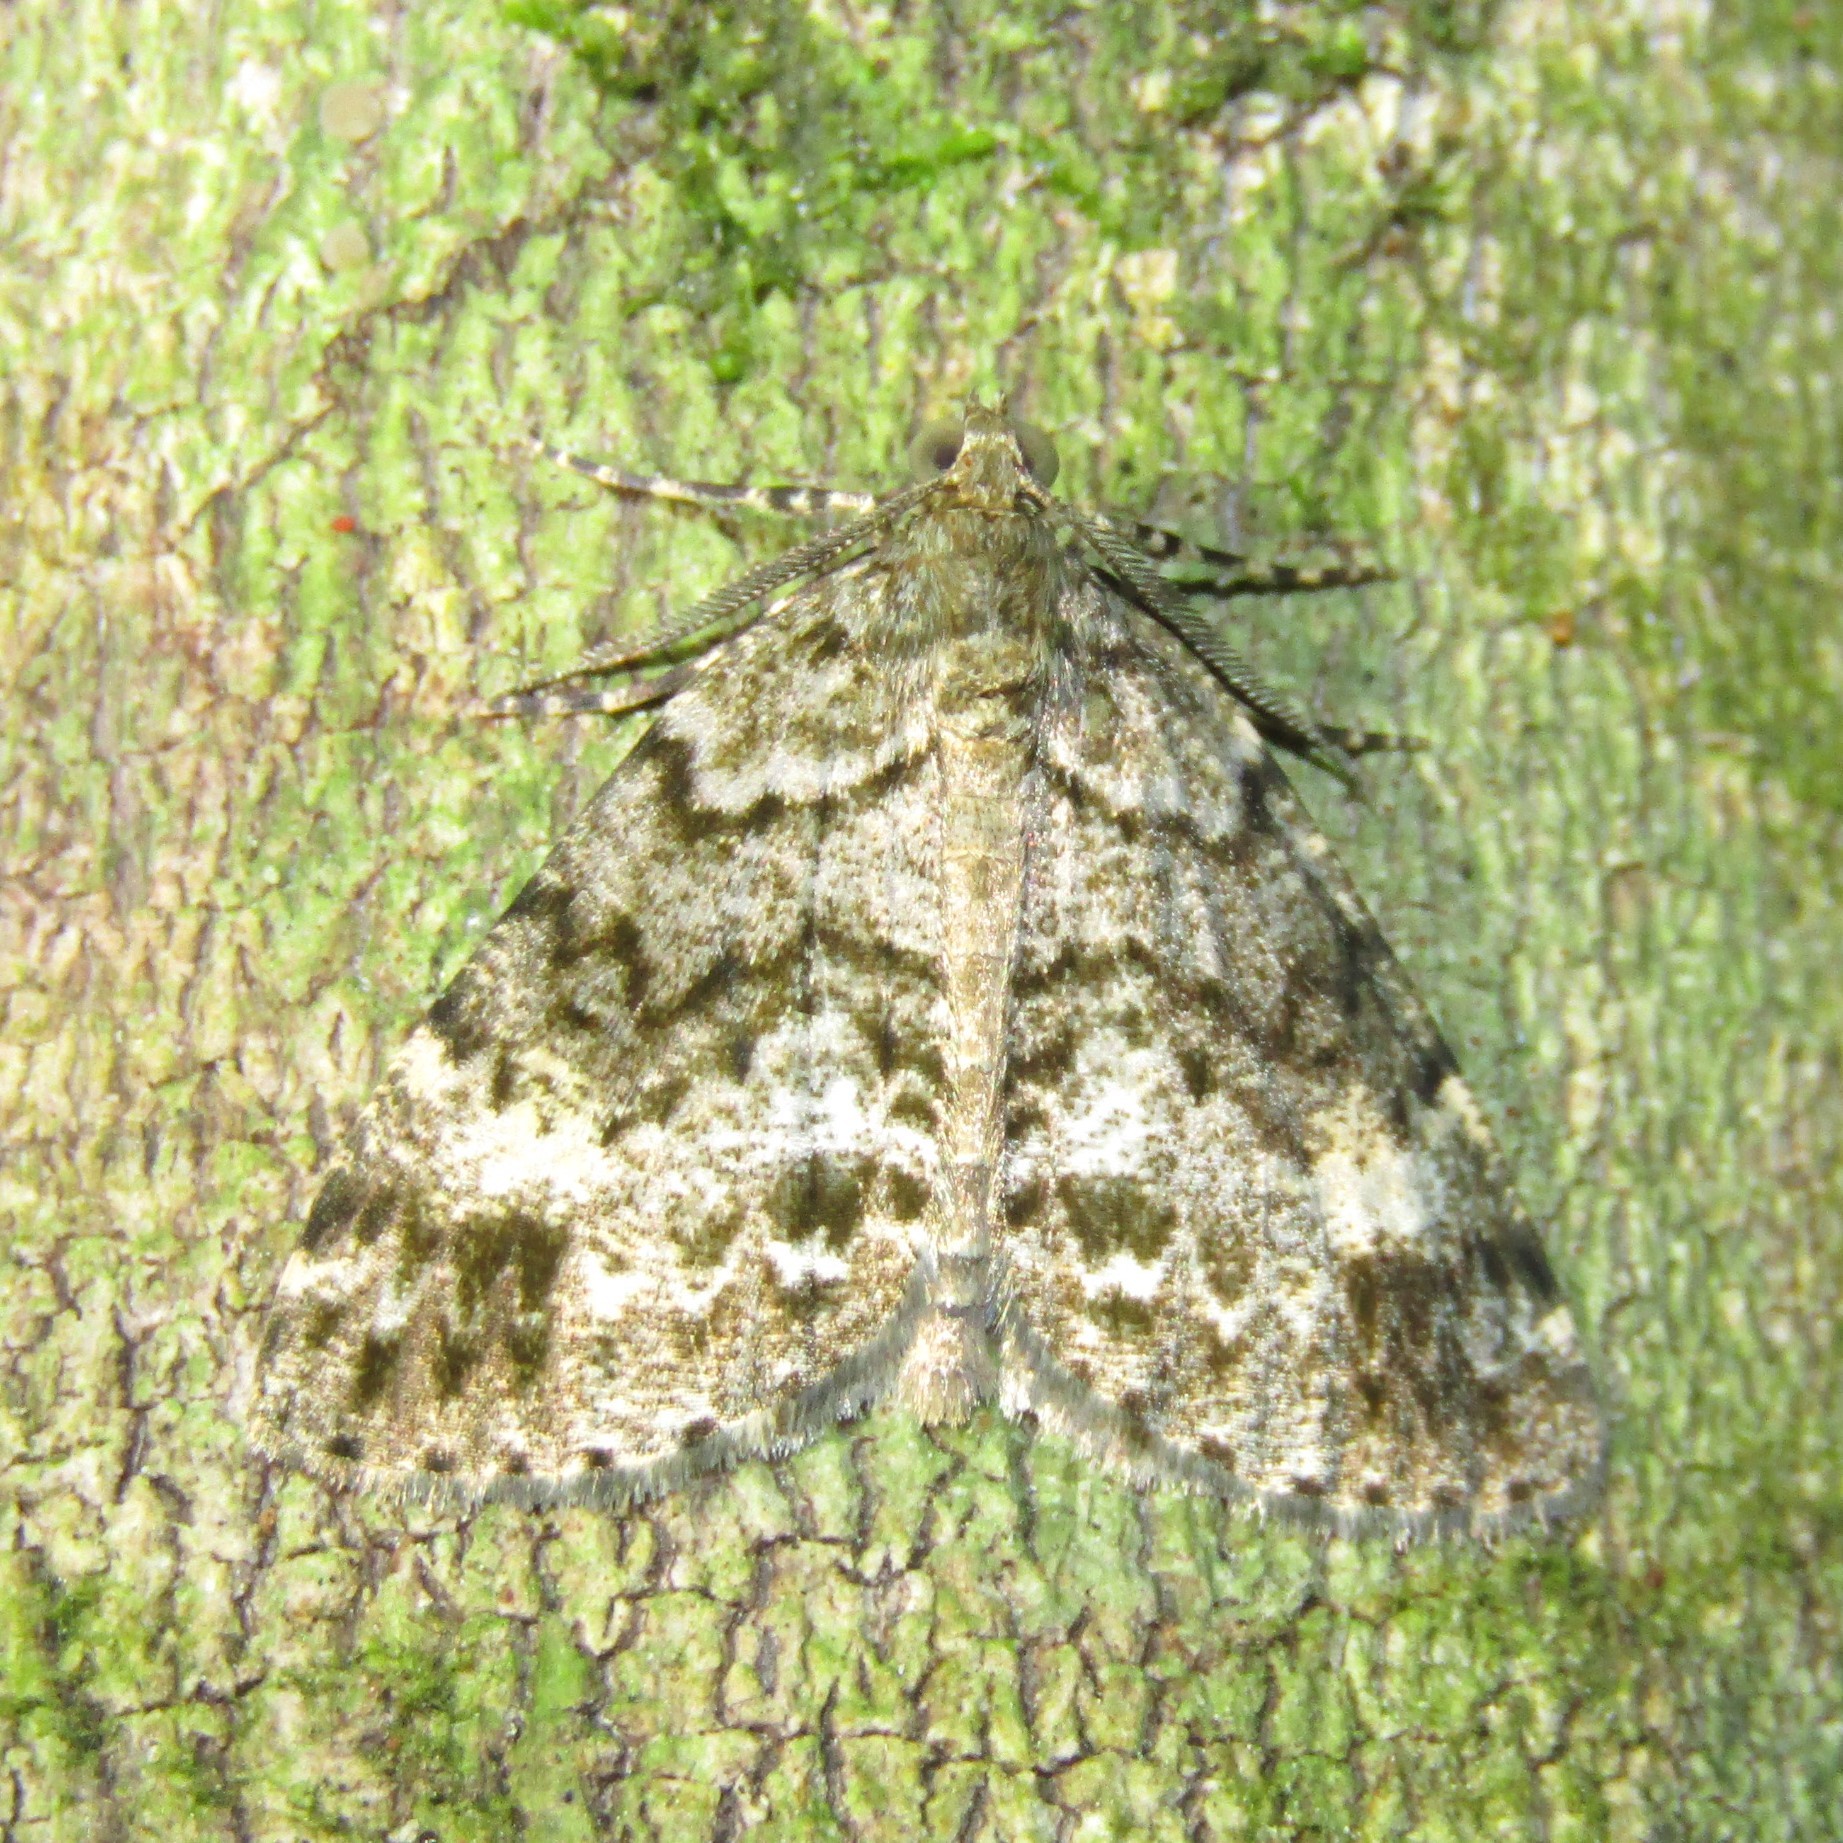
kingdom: Animalia
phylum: Arthropoda
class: Insecta
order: Lepidoptera
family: Geometridae
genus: Pseudocoremia
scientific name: Pseudocoremia indistincta
